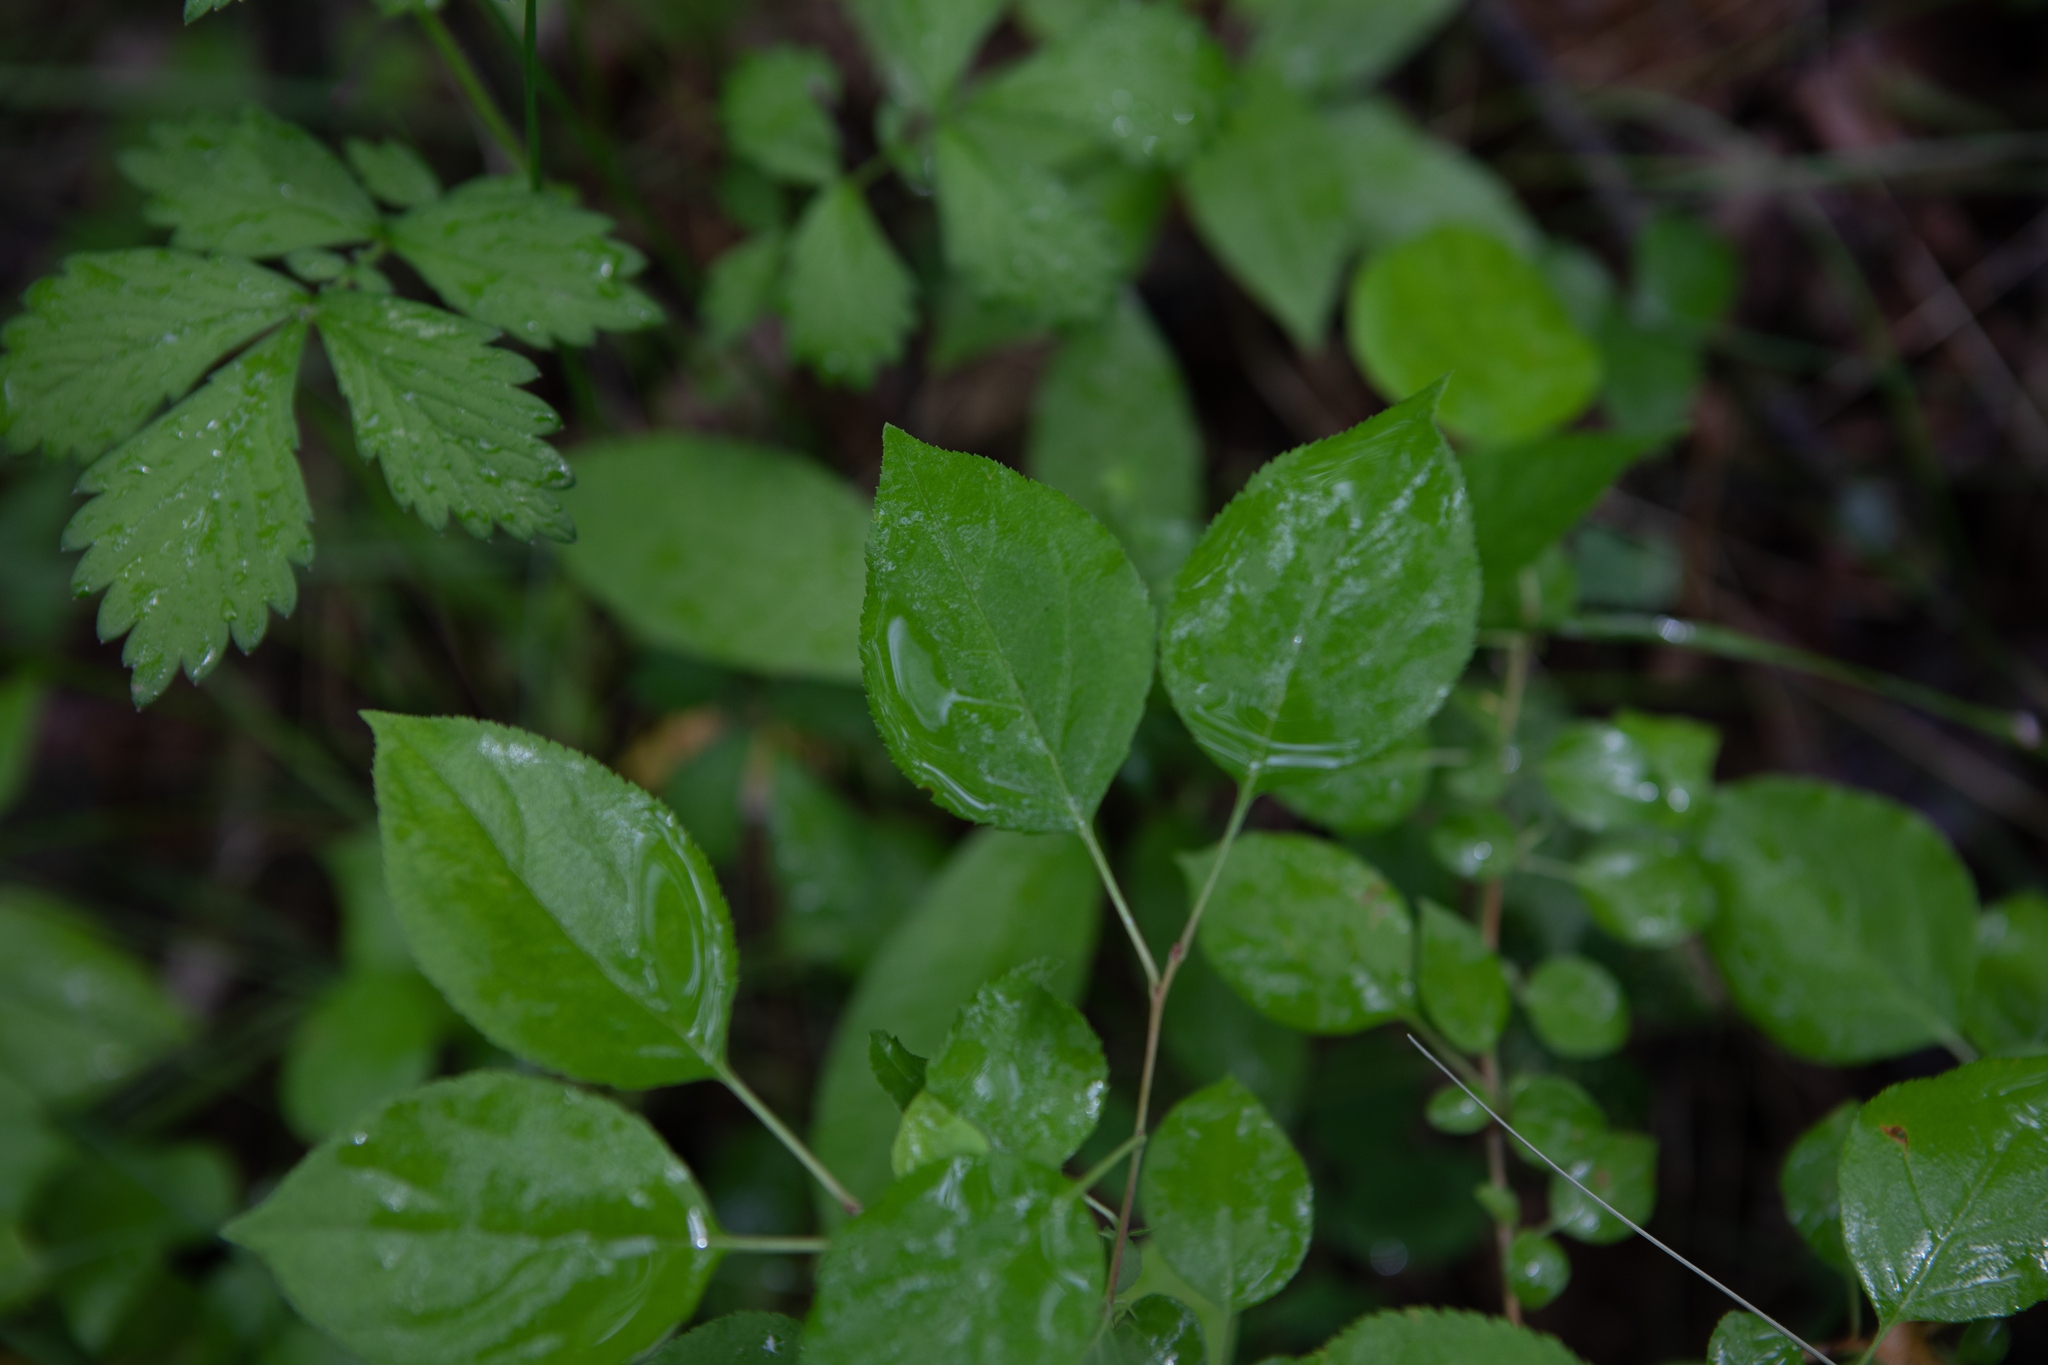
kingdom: Plantae
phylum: Tracheophyta
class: Magnoliopsida
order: Rosales
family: Rosaceae
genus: Malus
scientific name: Malus baccata
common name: Siberian crab
